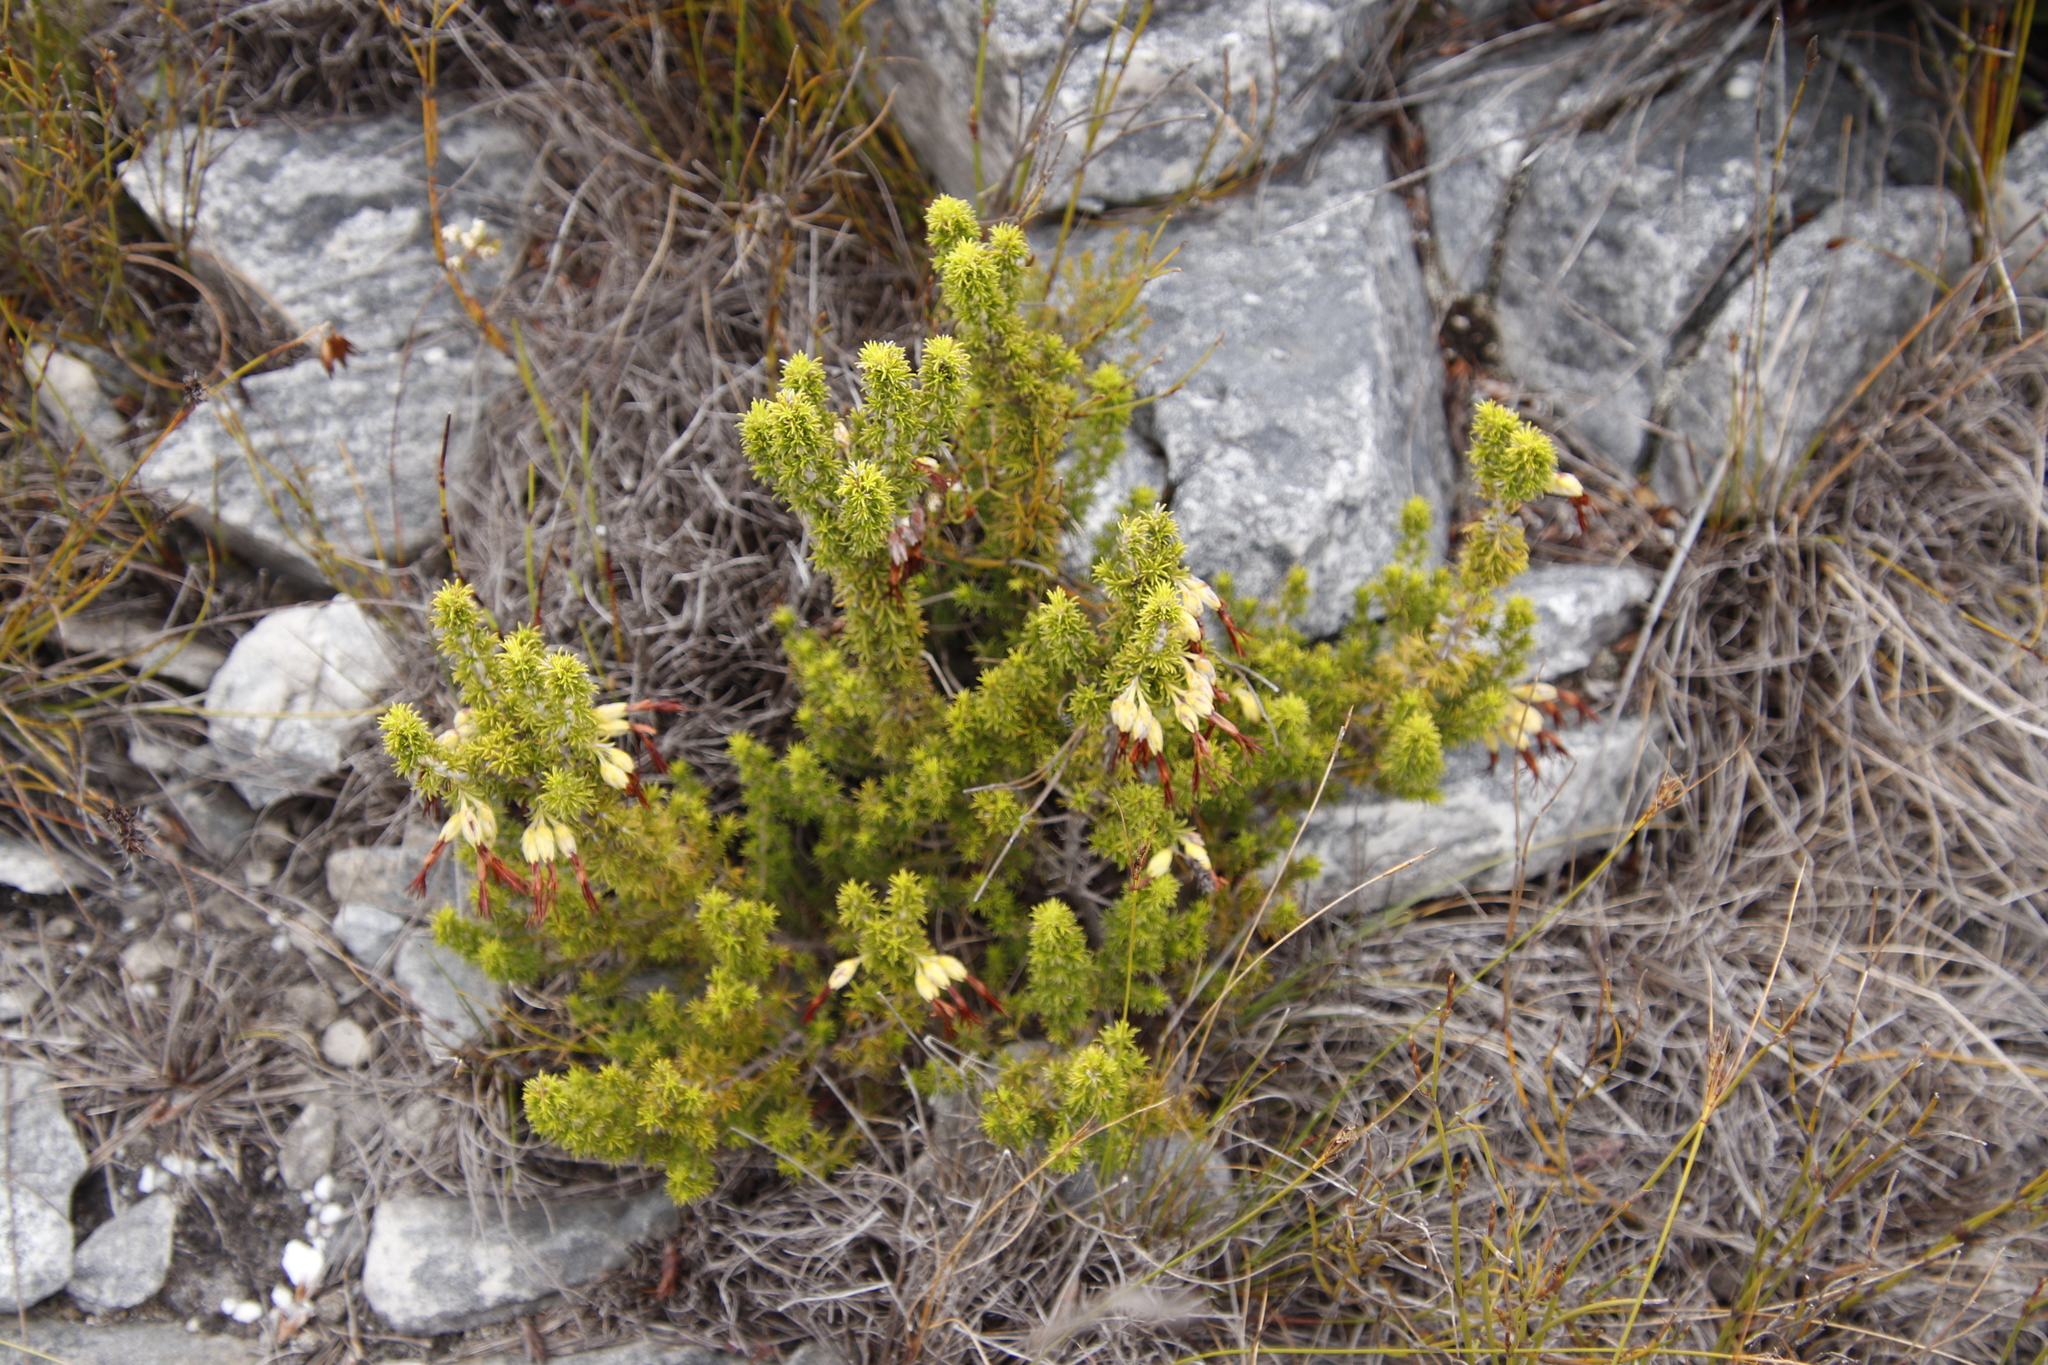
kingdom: Plantae
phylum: Tracheophyta
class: Magnoliopsida
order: Ericales
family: Ericaceae
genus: Erica
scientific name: Erica coccinea
